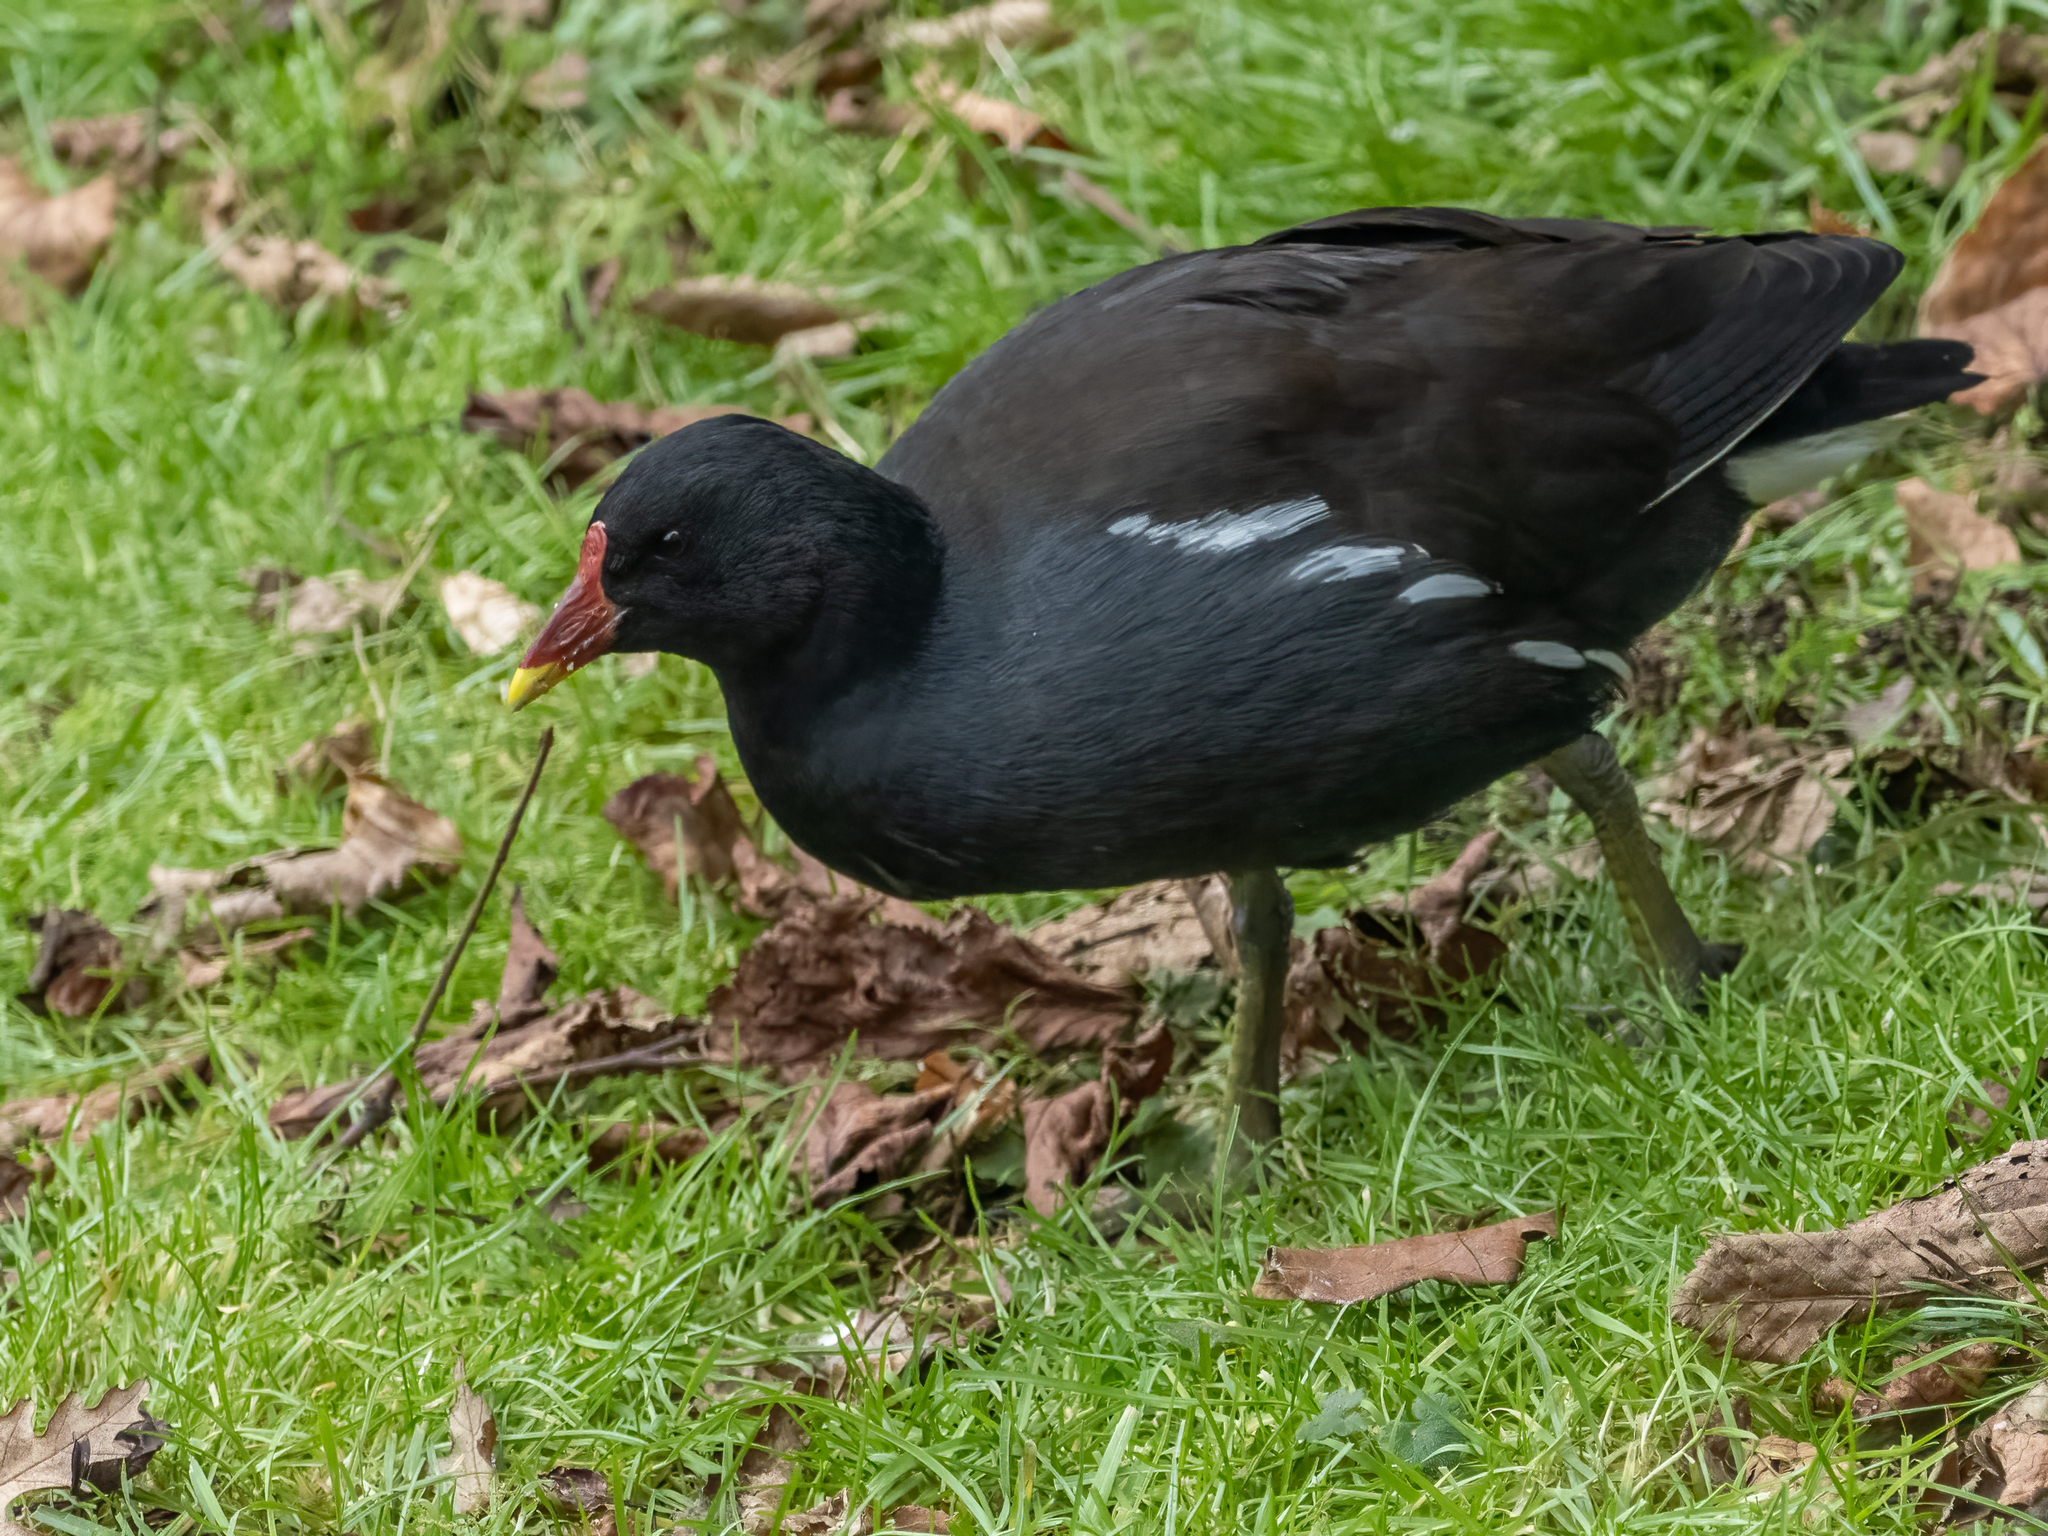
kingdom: Animalia
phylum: Chordata
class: Aves
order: Gruiformes
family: Rallidae
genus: Gallinula
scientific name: Gallinula chloropus
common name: Common moorhen
